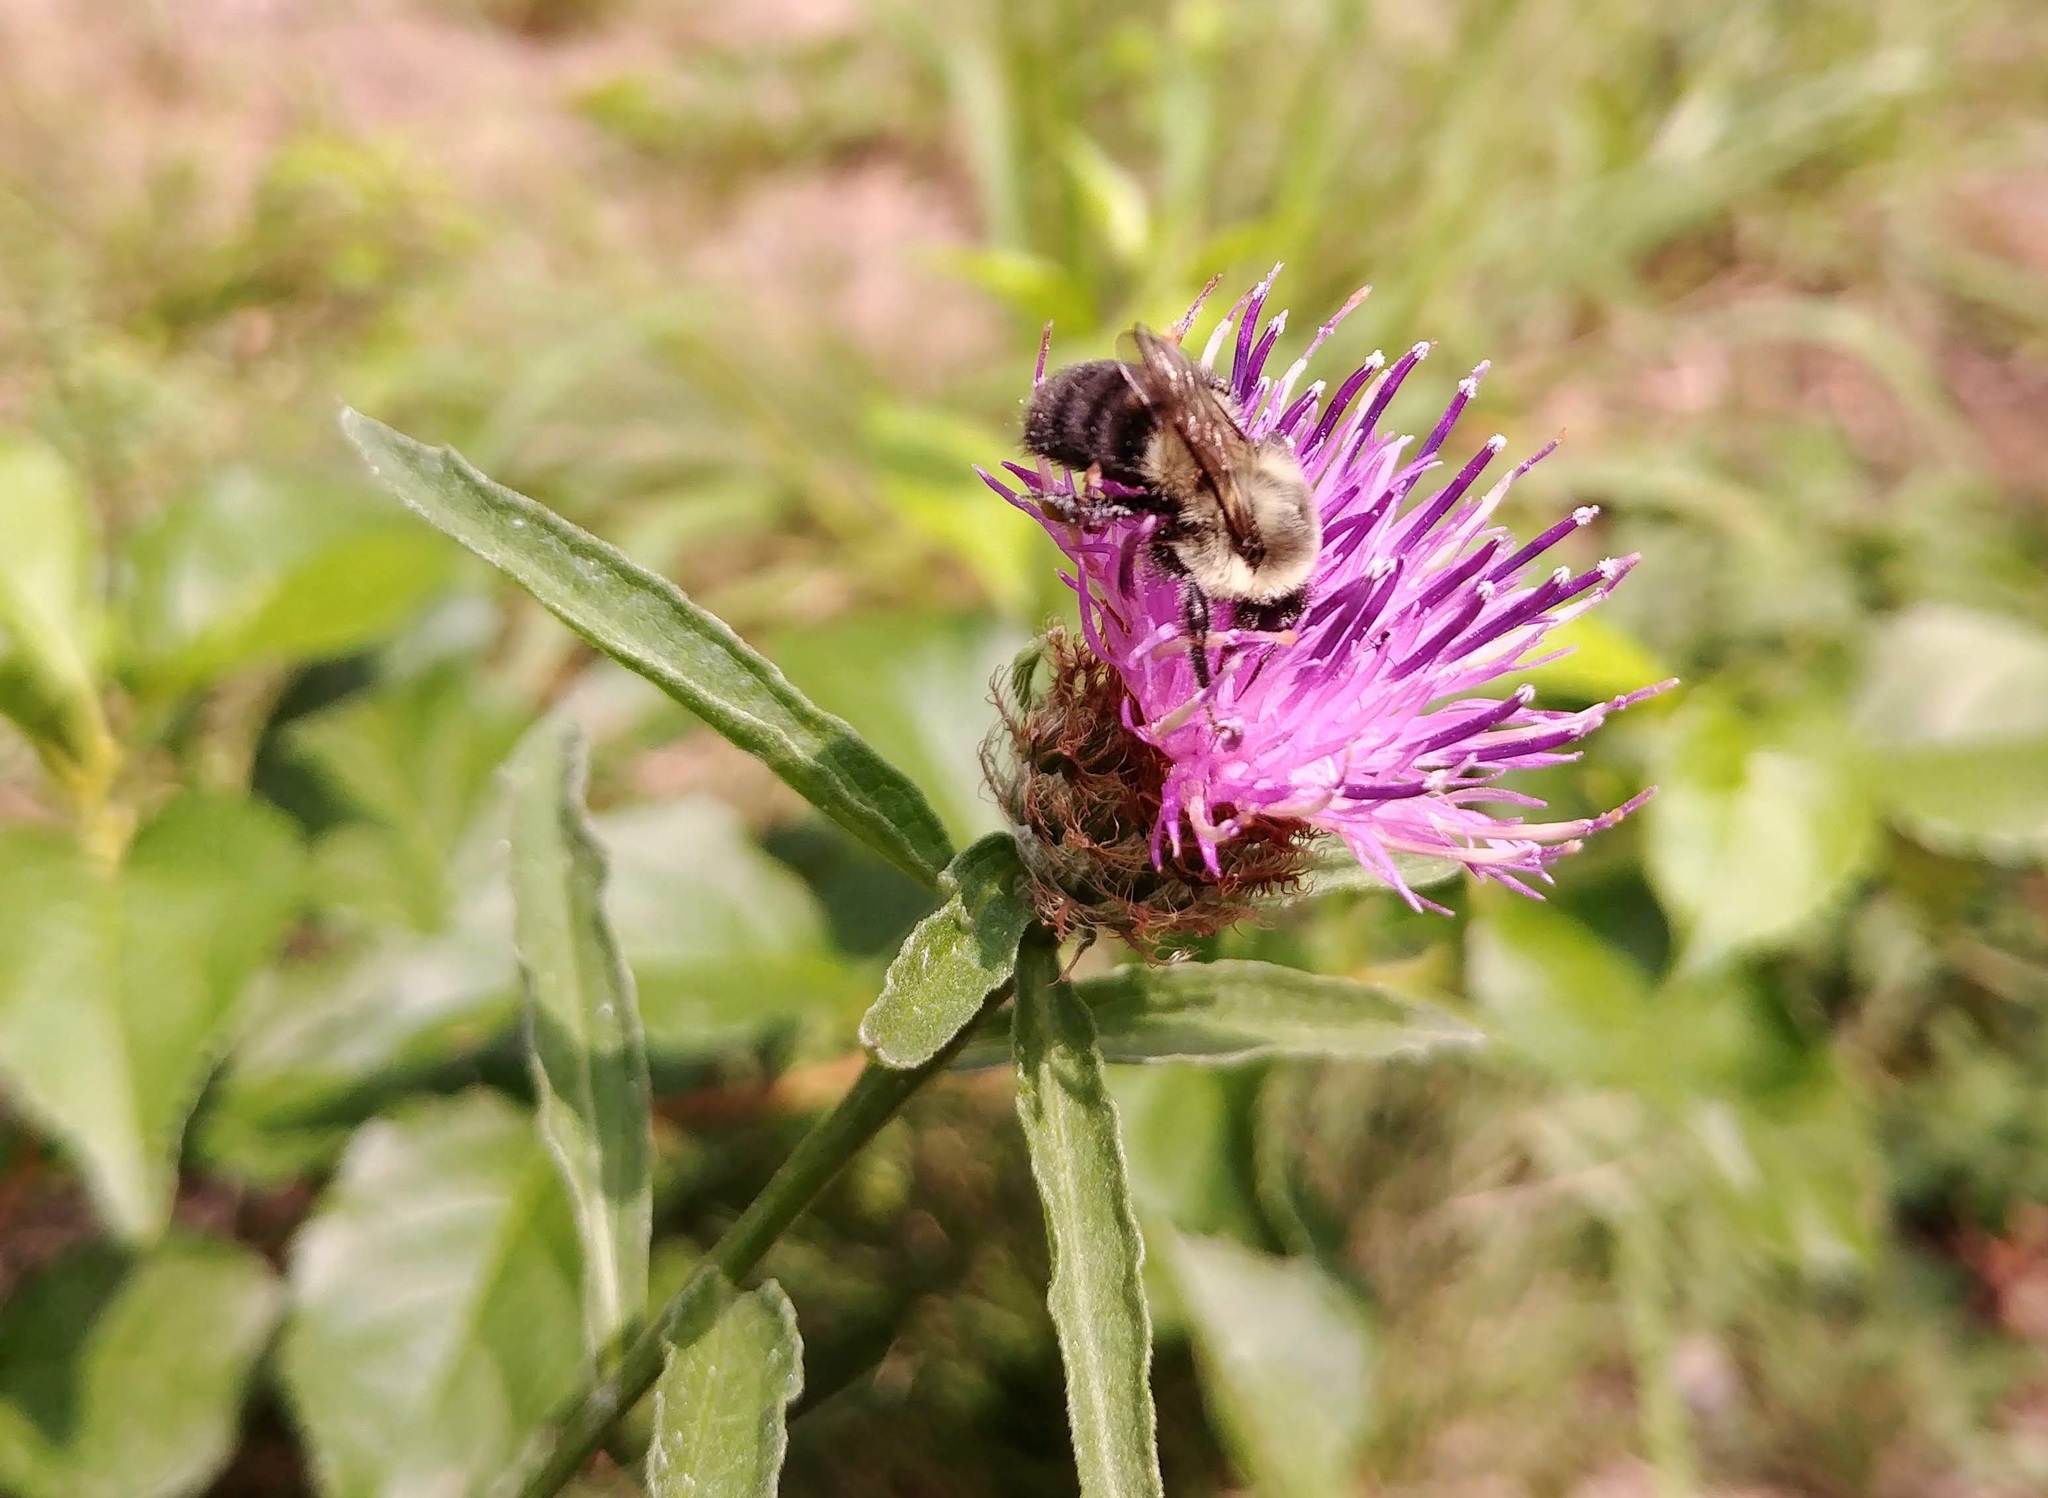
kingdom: Animalia
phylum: Arthropoda
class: Insecta
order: Hymenoptera
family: Apidae
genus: Bombus
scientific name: Bombus impatiens
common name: Common eastern bumble bee
